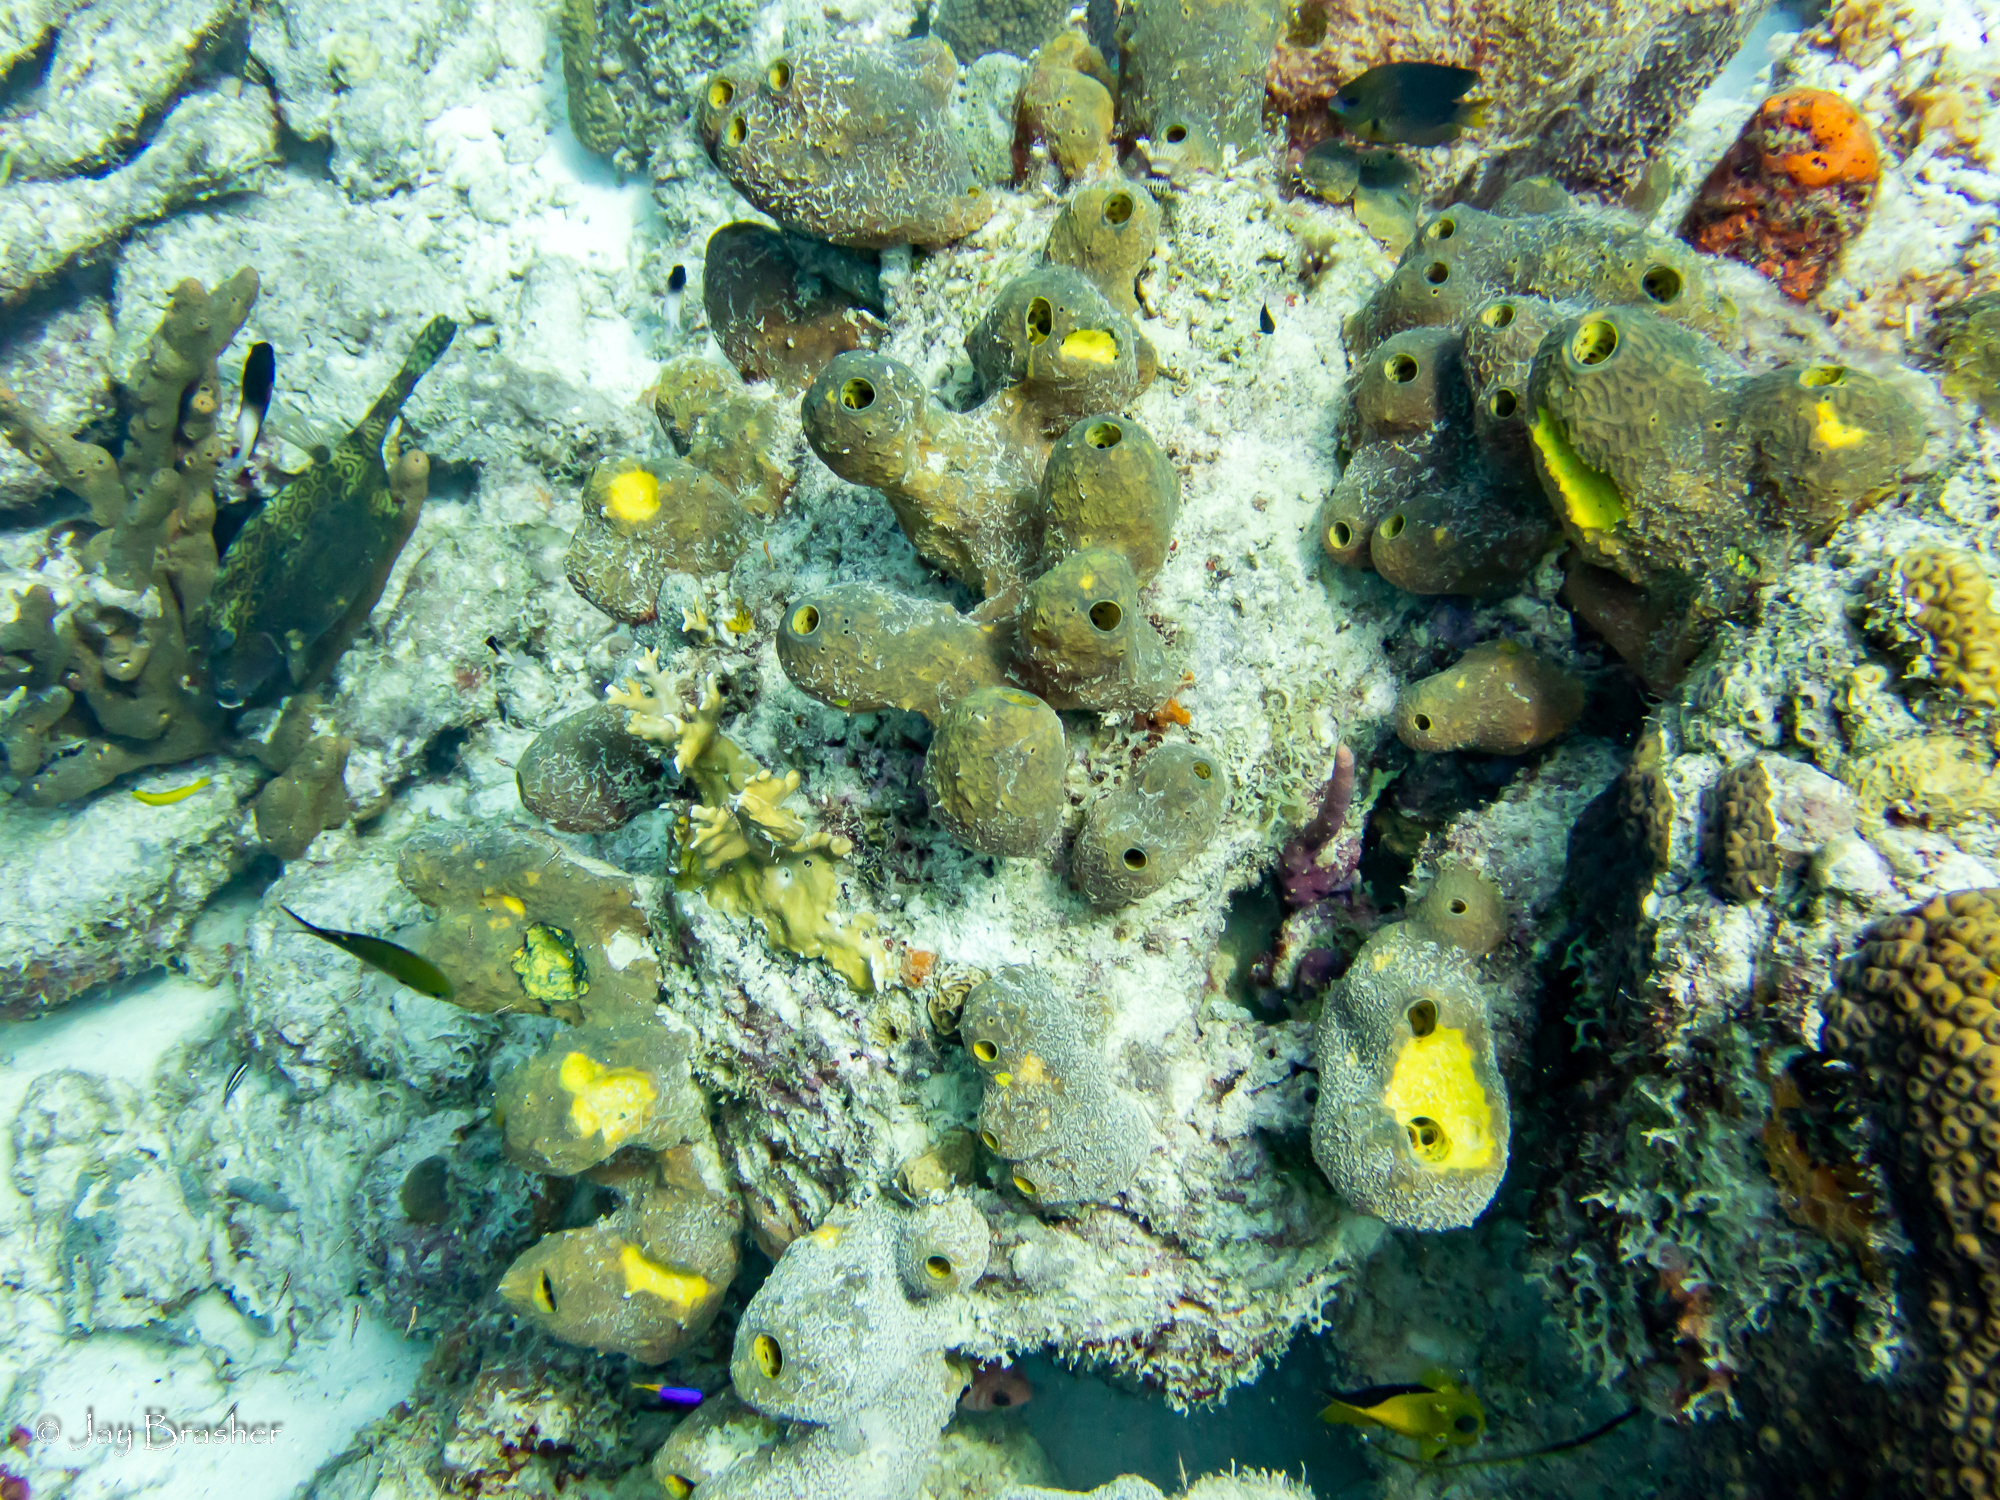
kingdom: Animalia
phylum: Porifera
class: Demospongiae
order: Verongiida
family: Aplysinidae
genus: Verongula
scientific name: Verongula reiswigi
